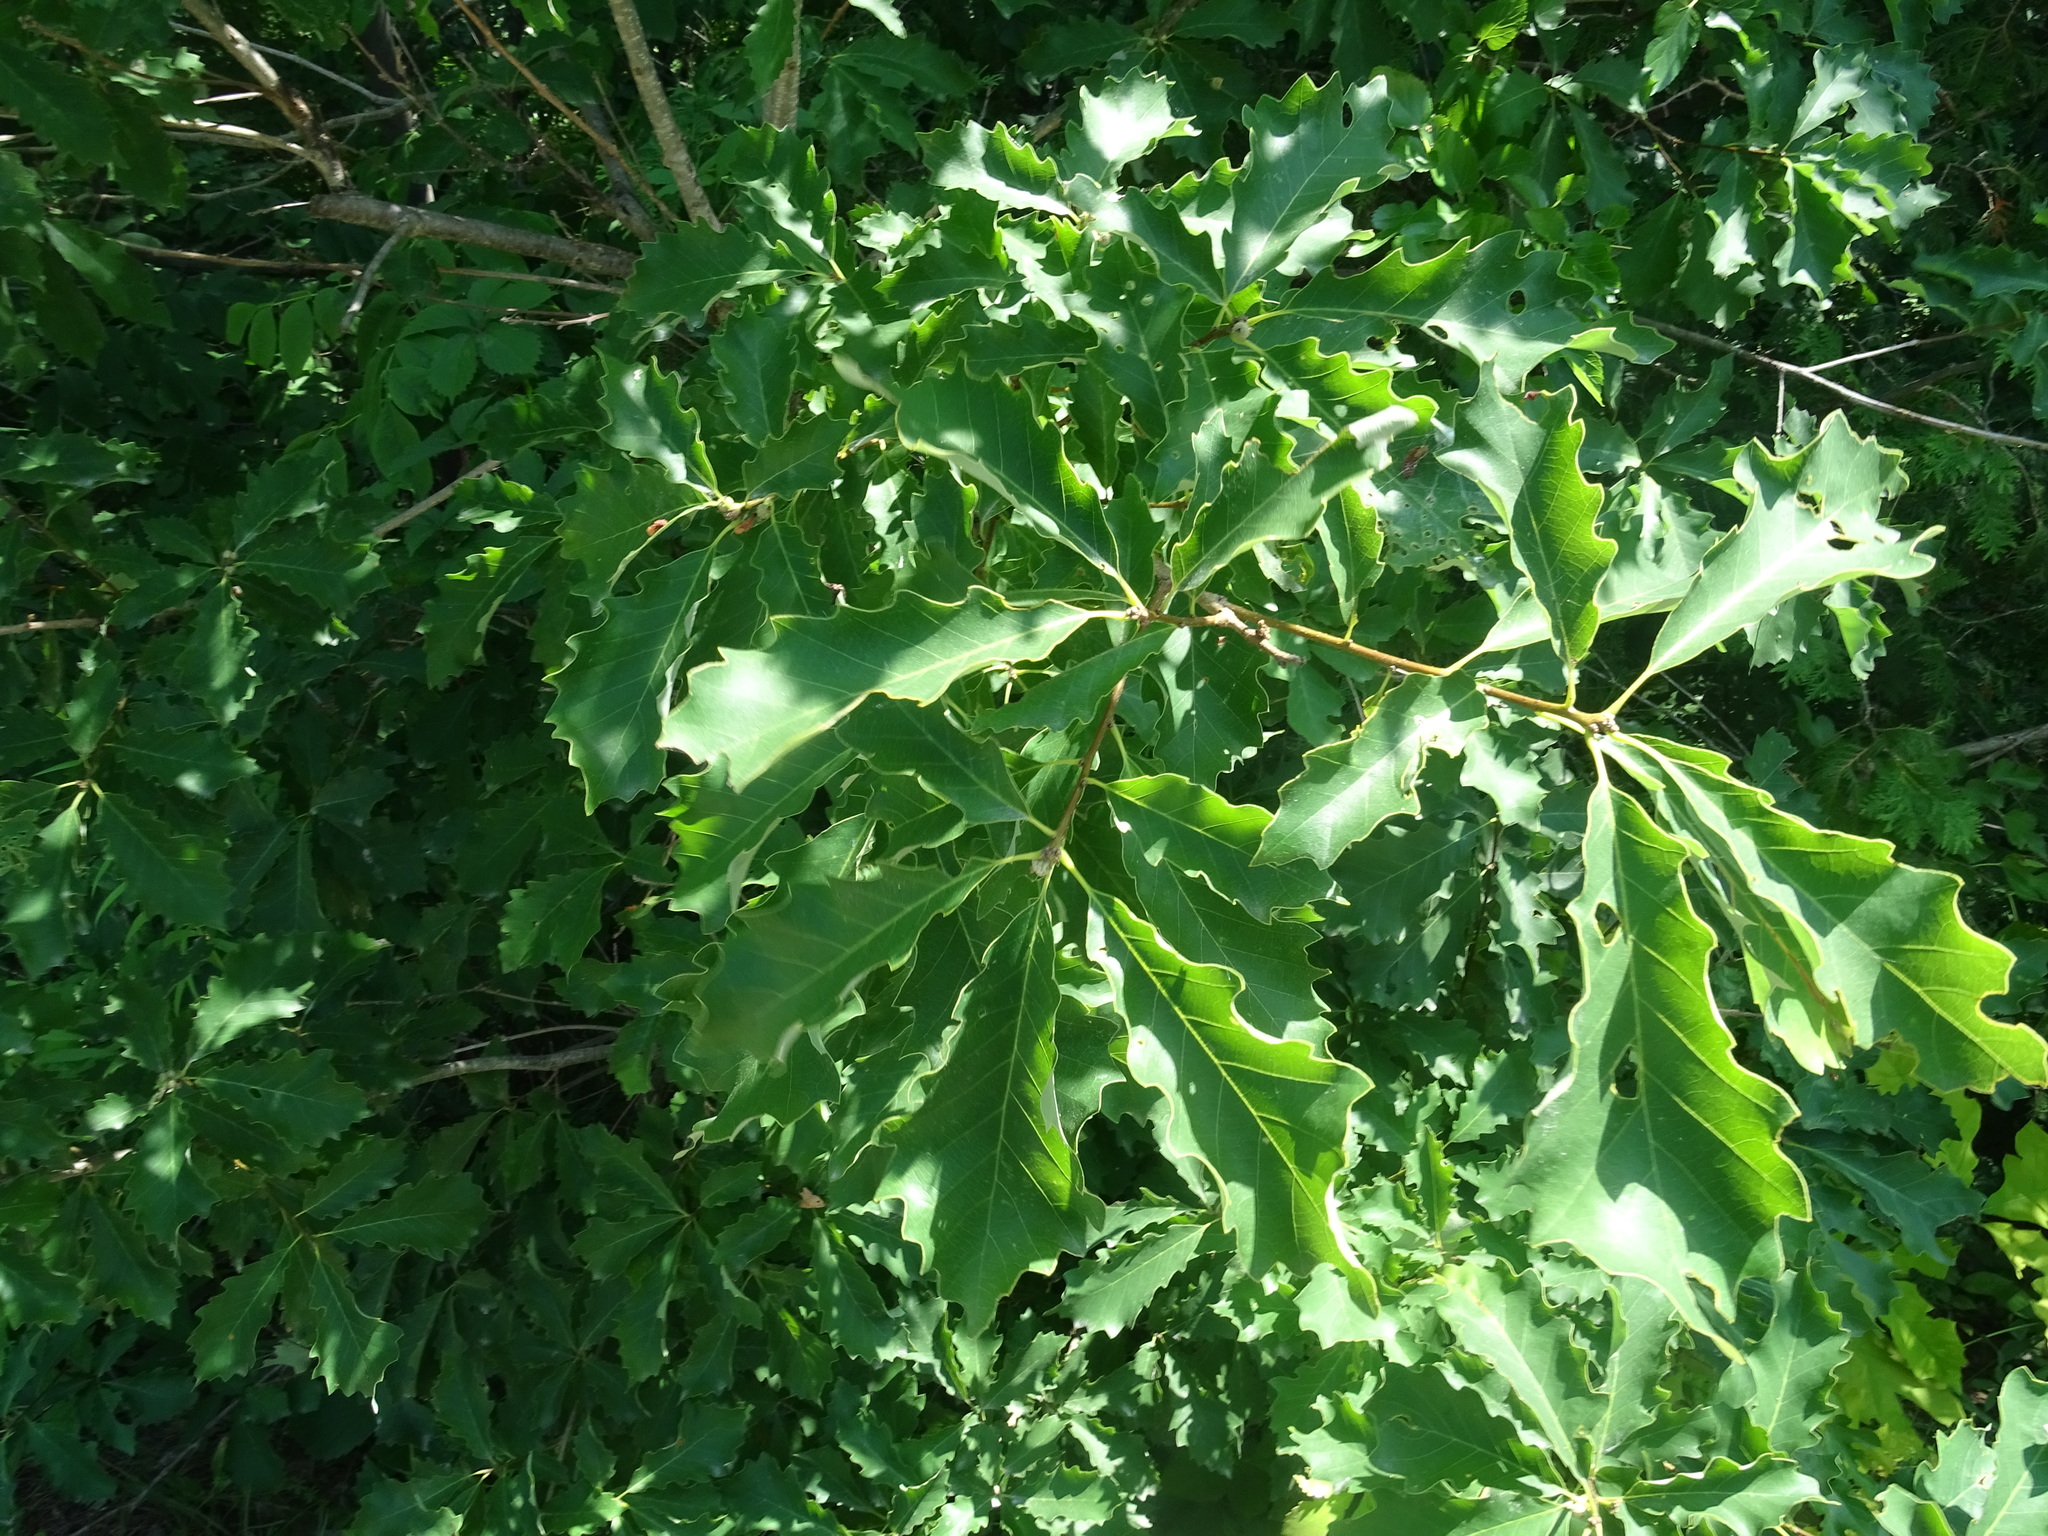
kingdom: Plantae
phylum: Tracheophyta
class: Magnoliopsida
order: Fagales
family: Fagaceae
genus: Quercus
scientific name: Quercus prinoides
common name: Dwarf chinkapin oak
